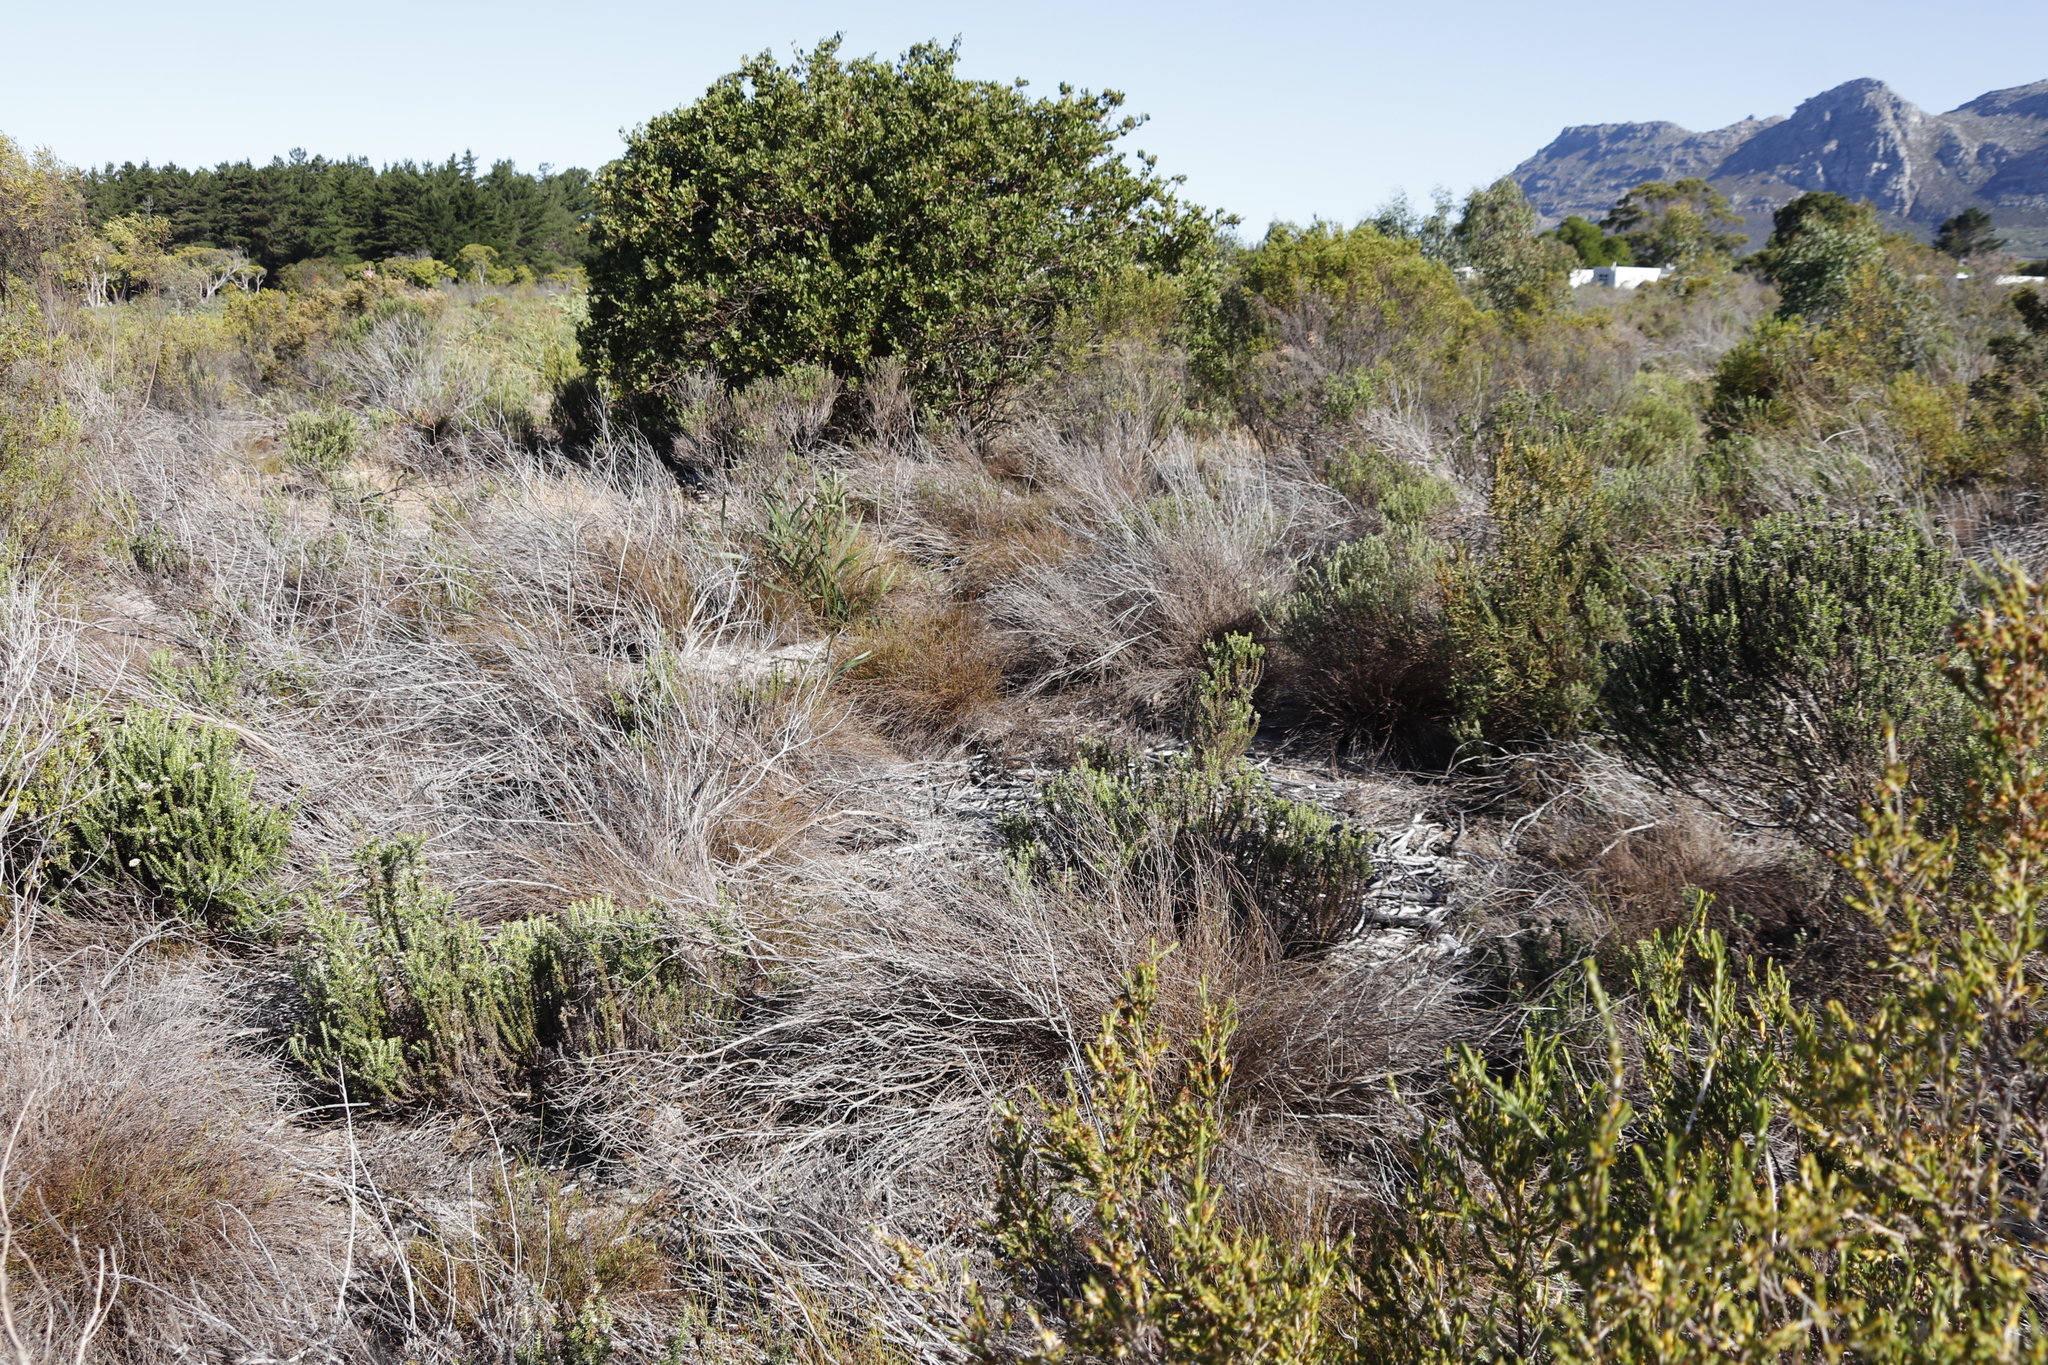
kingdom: Plantae
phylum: Tracheophyta
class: Liliopsida
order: Poales
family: Restionaceae
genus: Restio
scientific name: Restio capensis
